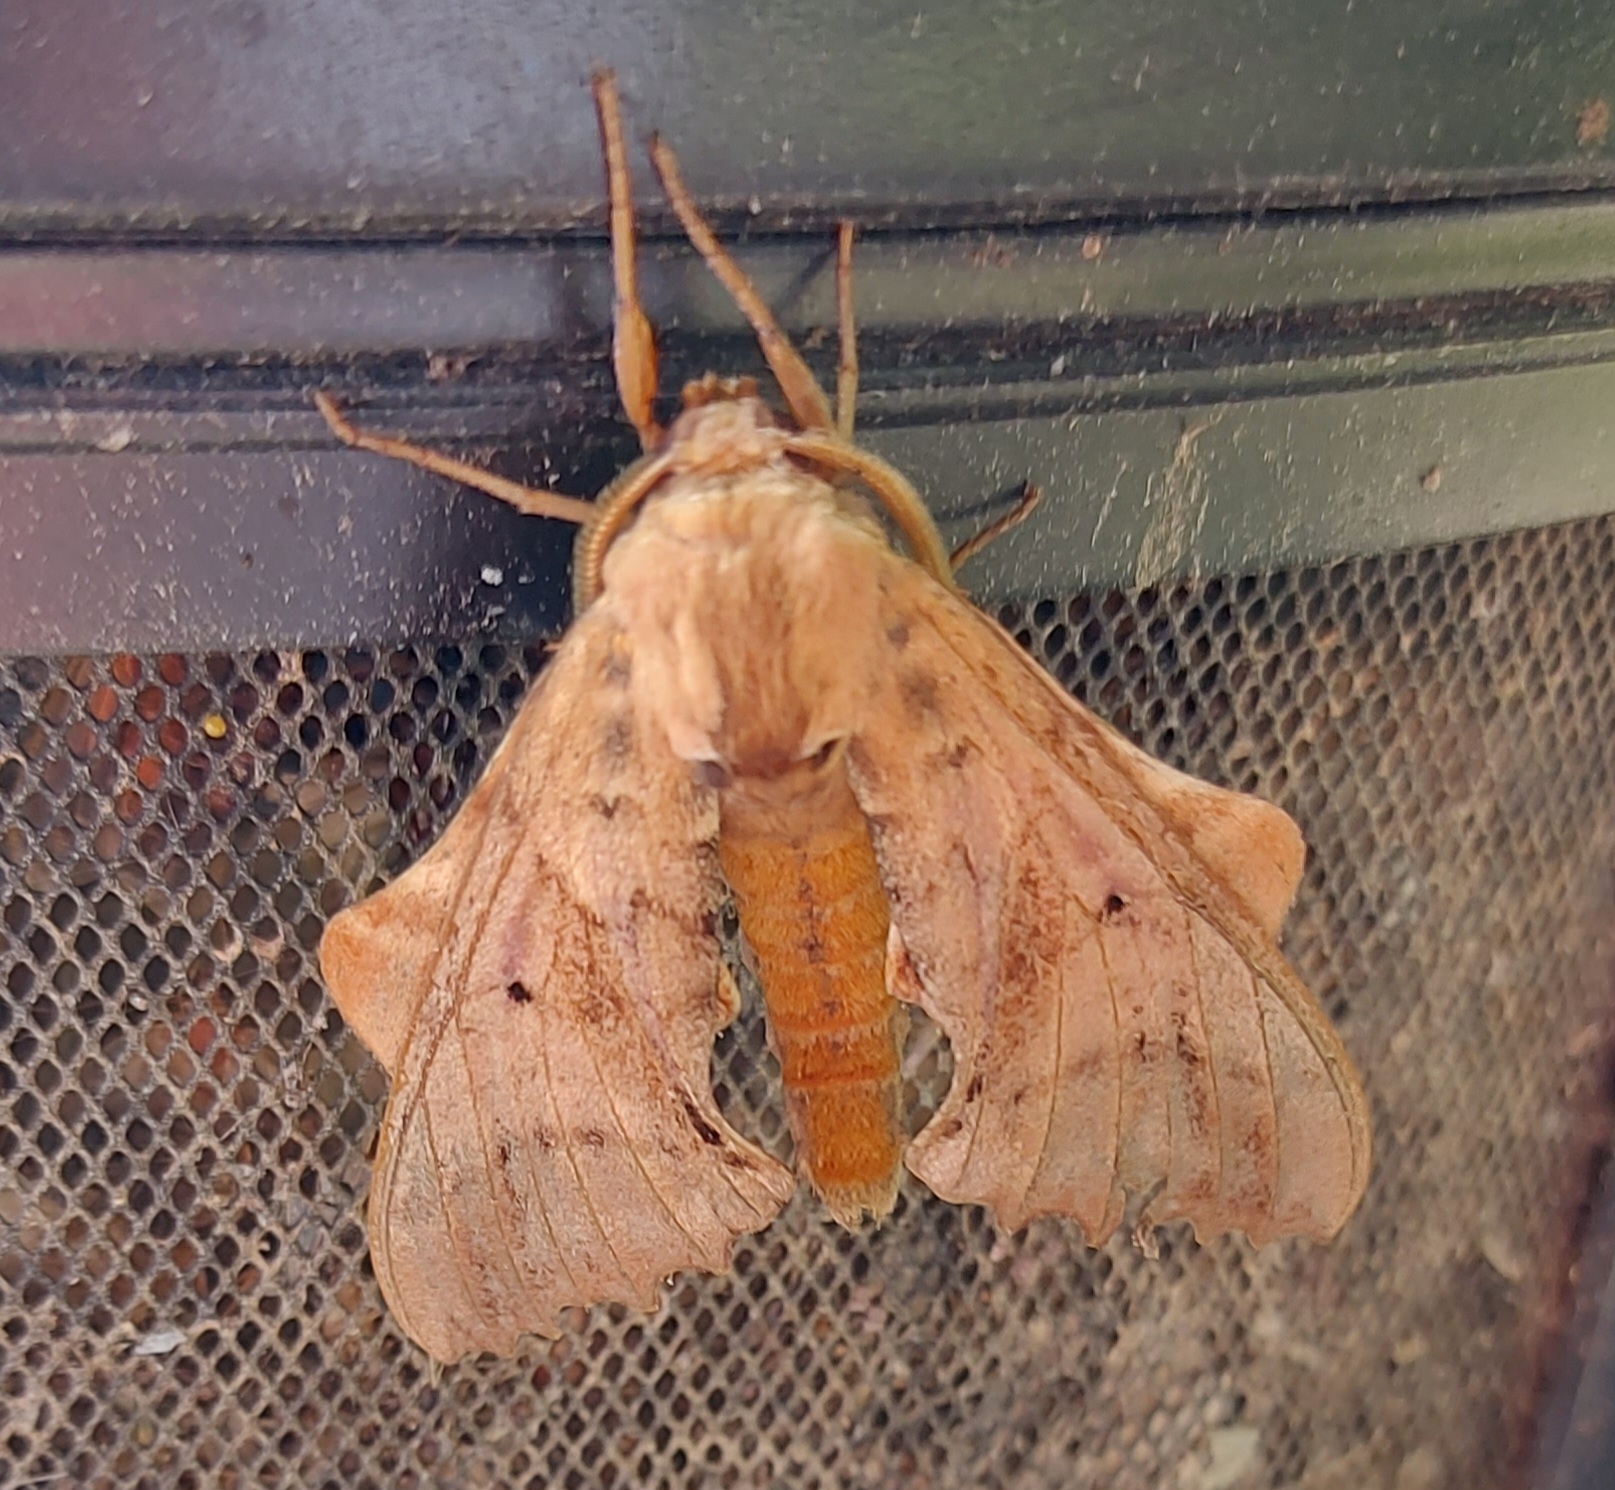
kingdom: Animalia
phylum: Arthropoda
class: Insecta
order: Lepidoptera
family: Sphingidae
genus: Paonias
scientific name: Paonias excaecata
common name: Blind-eyed sphinx
